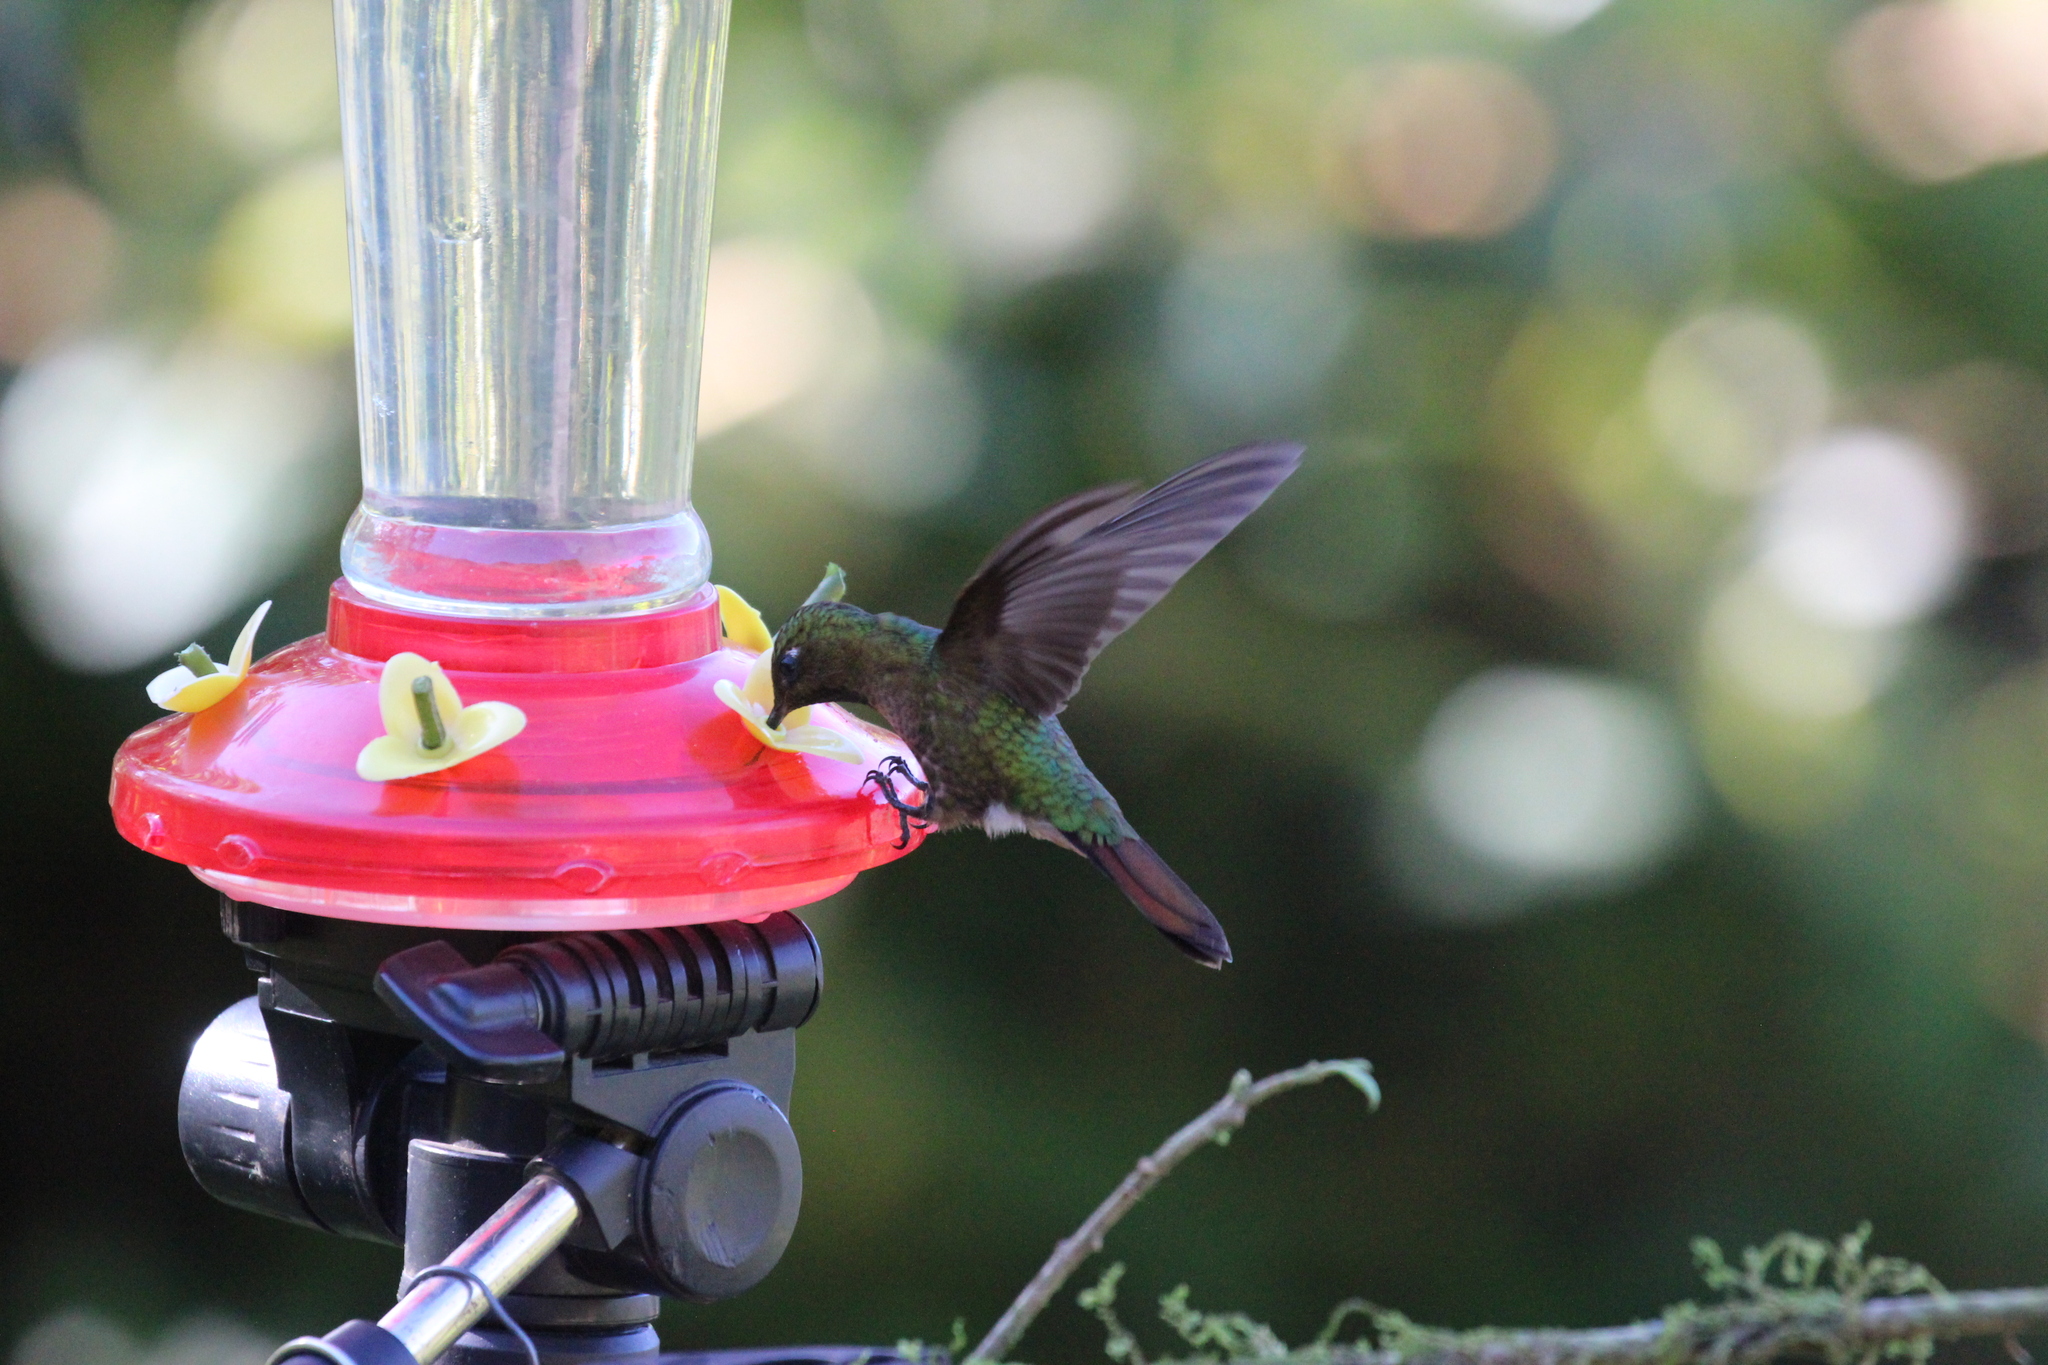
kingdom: Animalia
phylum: Chordata
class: Aves
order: Apodiformes
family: Trochilidae
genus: Metallura
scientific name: Metallura tyrianthina
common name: Tyrian metaltail
